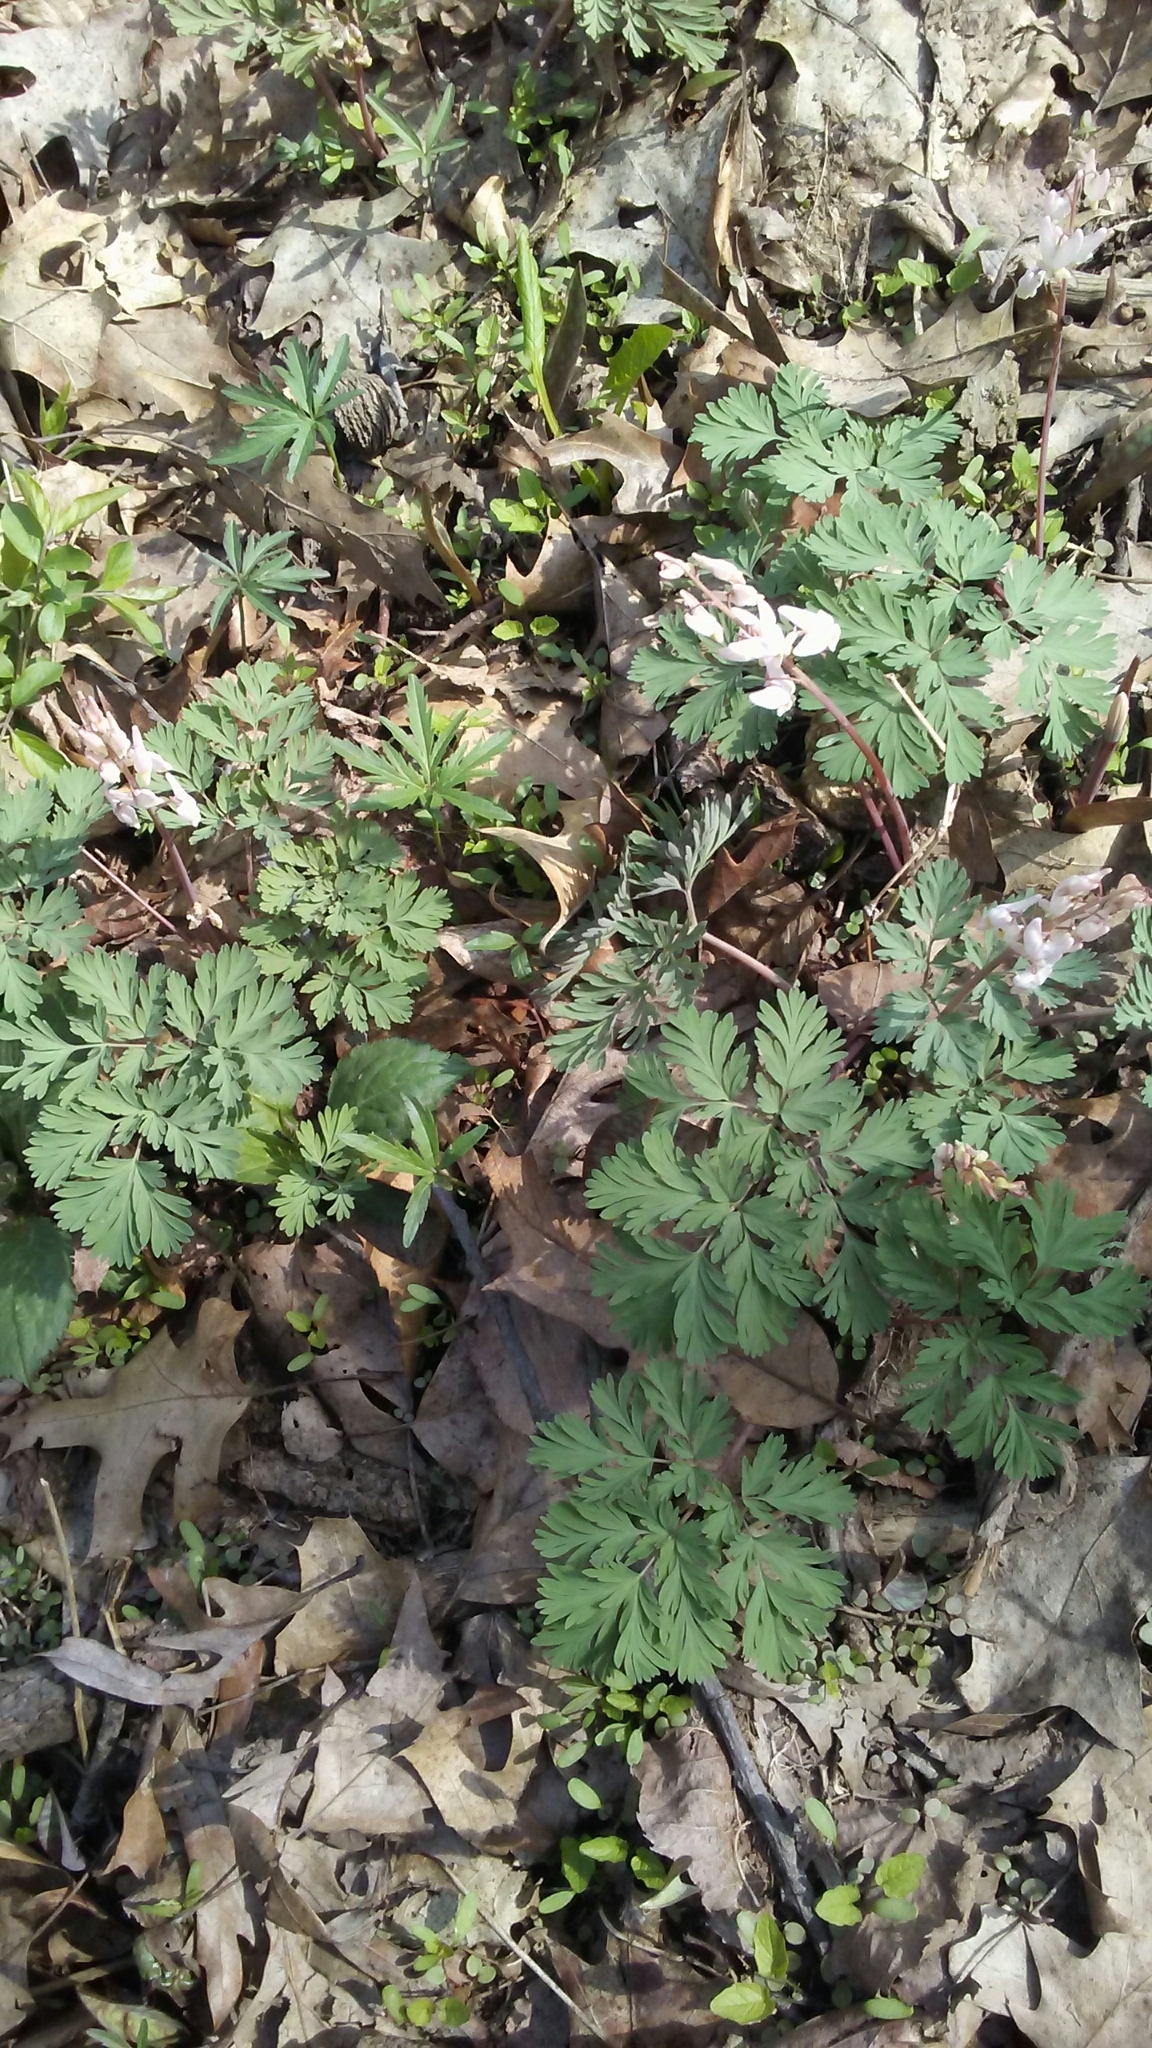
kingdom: Plantae
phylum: Tracheophyta
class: Magnoliopsida
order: Ranunculales
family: Papaveraceae
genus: Dicentra
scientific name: Dicentra cucullaria
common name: Dutchman's breeches
